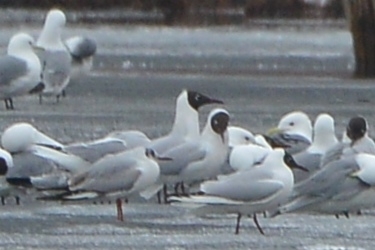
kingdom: Animalia
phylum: Chordata
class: Aves
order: Charadriiformes
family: Laridae
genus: Chroicocephalus
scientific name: Chroicocephalus ridibundus
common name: Black-headed gull
